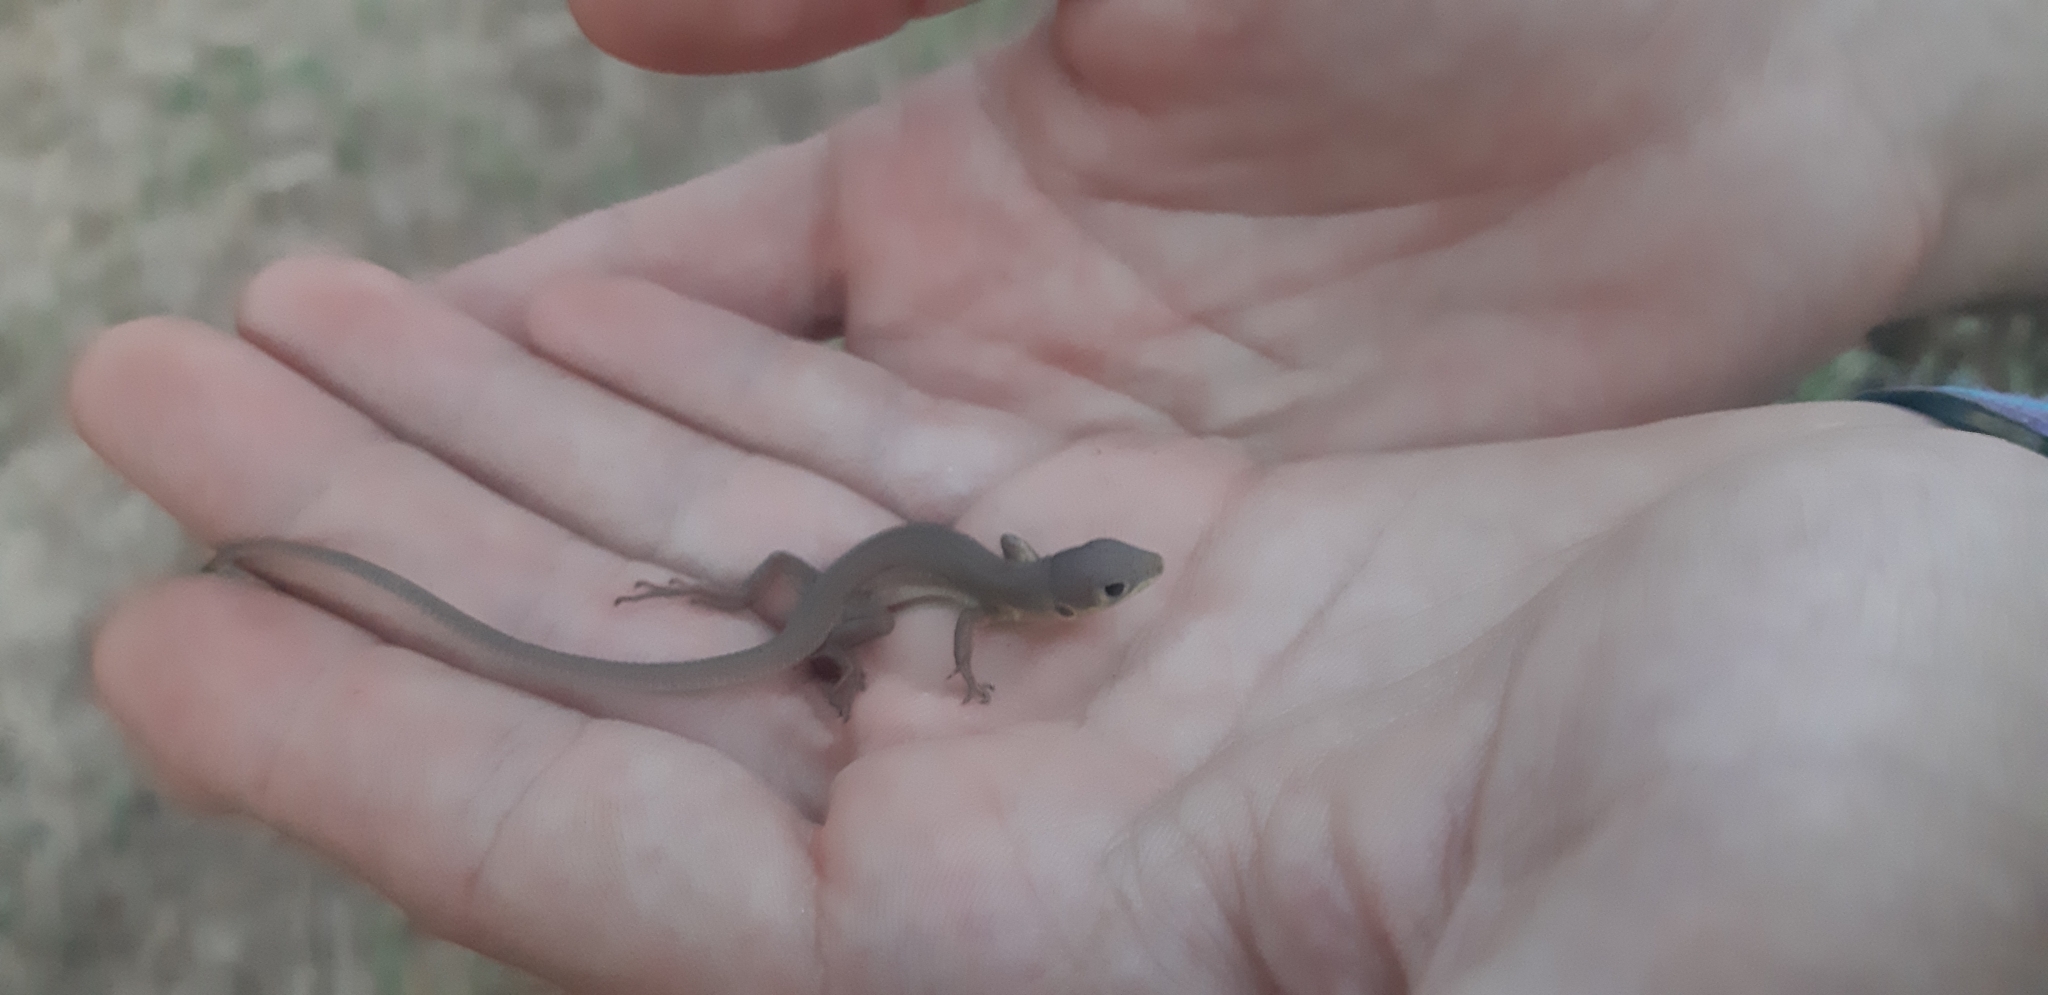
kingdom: Animalia
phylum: Chordata
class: Squamata
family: Lacertidae
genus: Lacerta
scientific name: Lacerta bilineata
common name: Western green lizard
